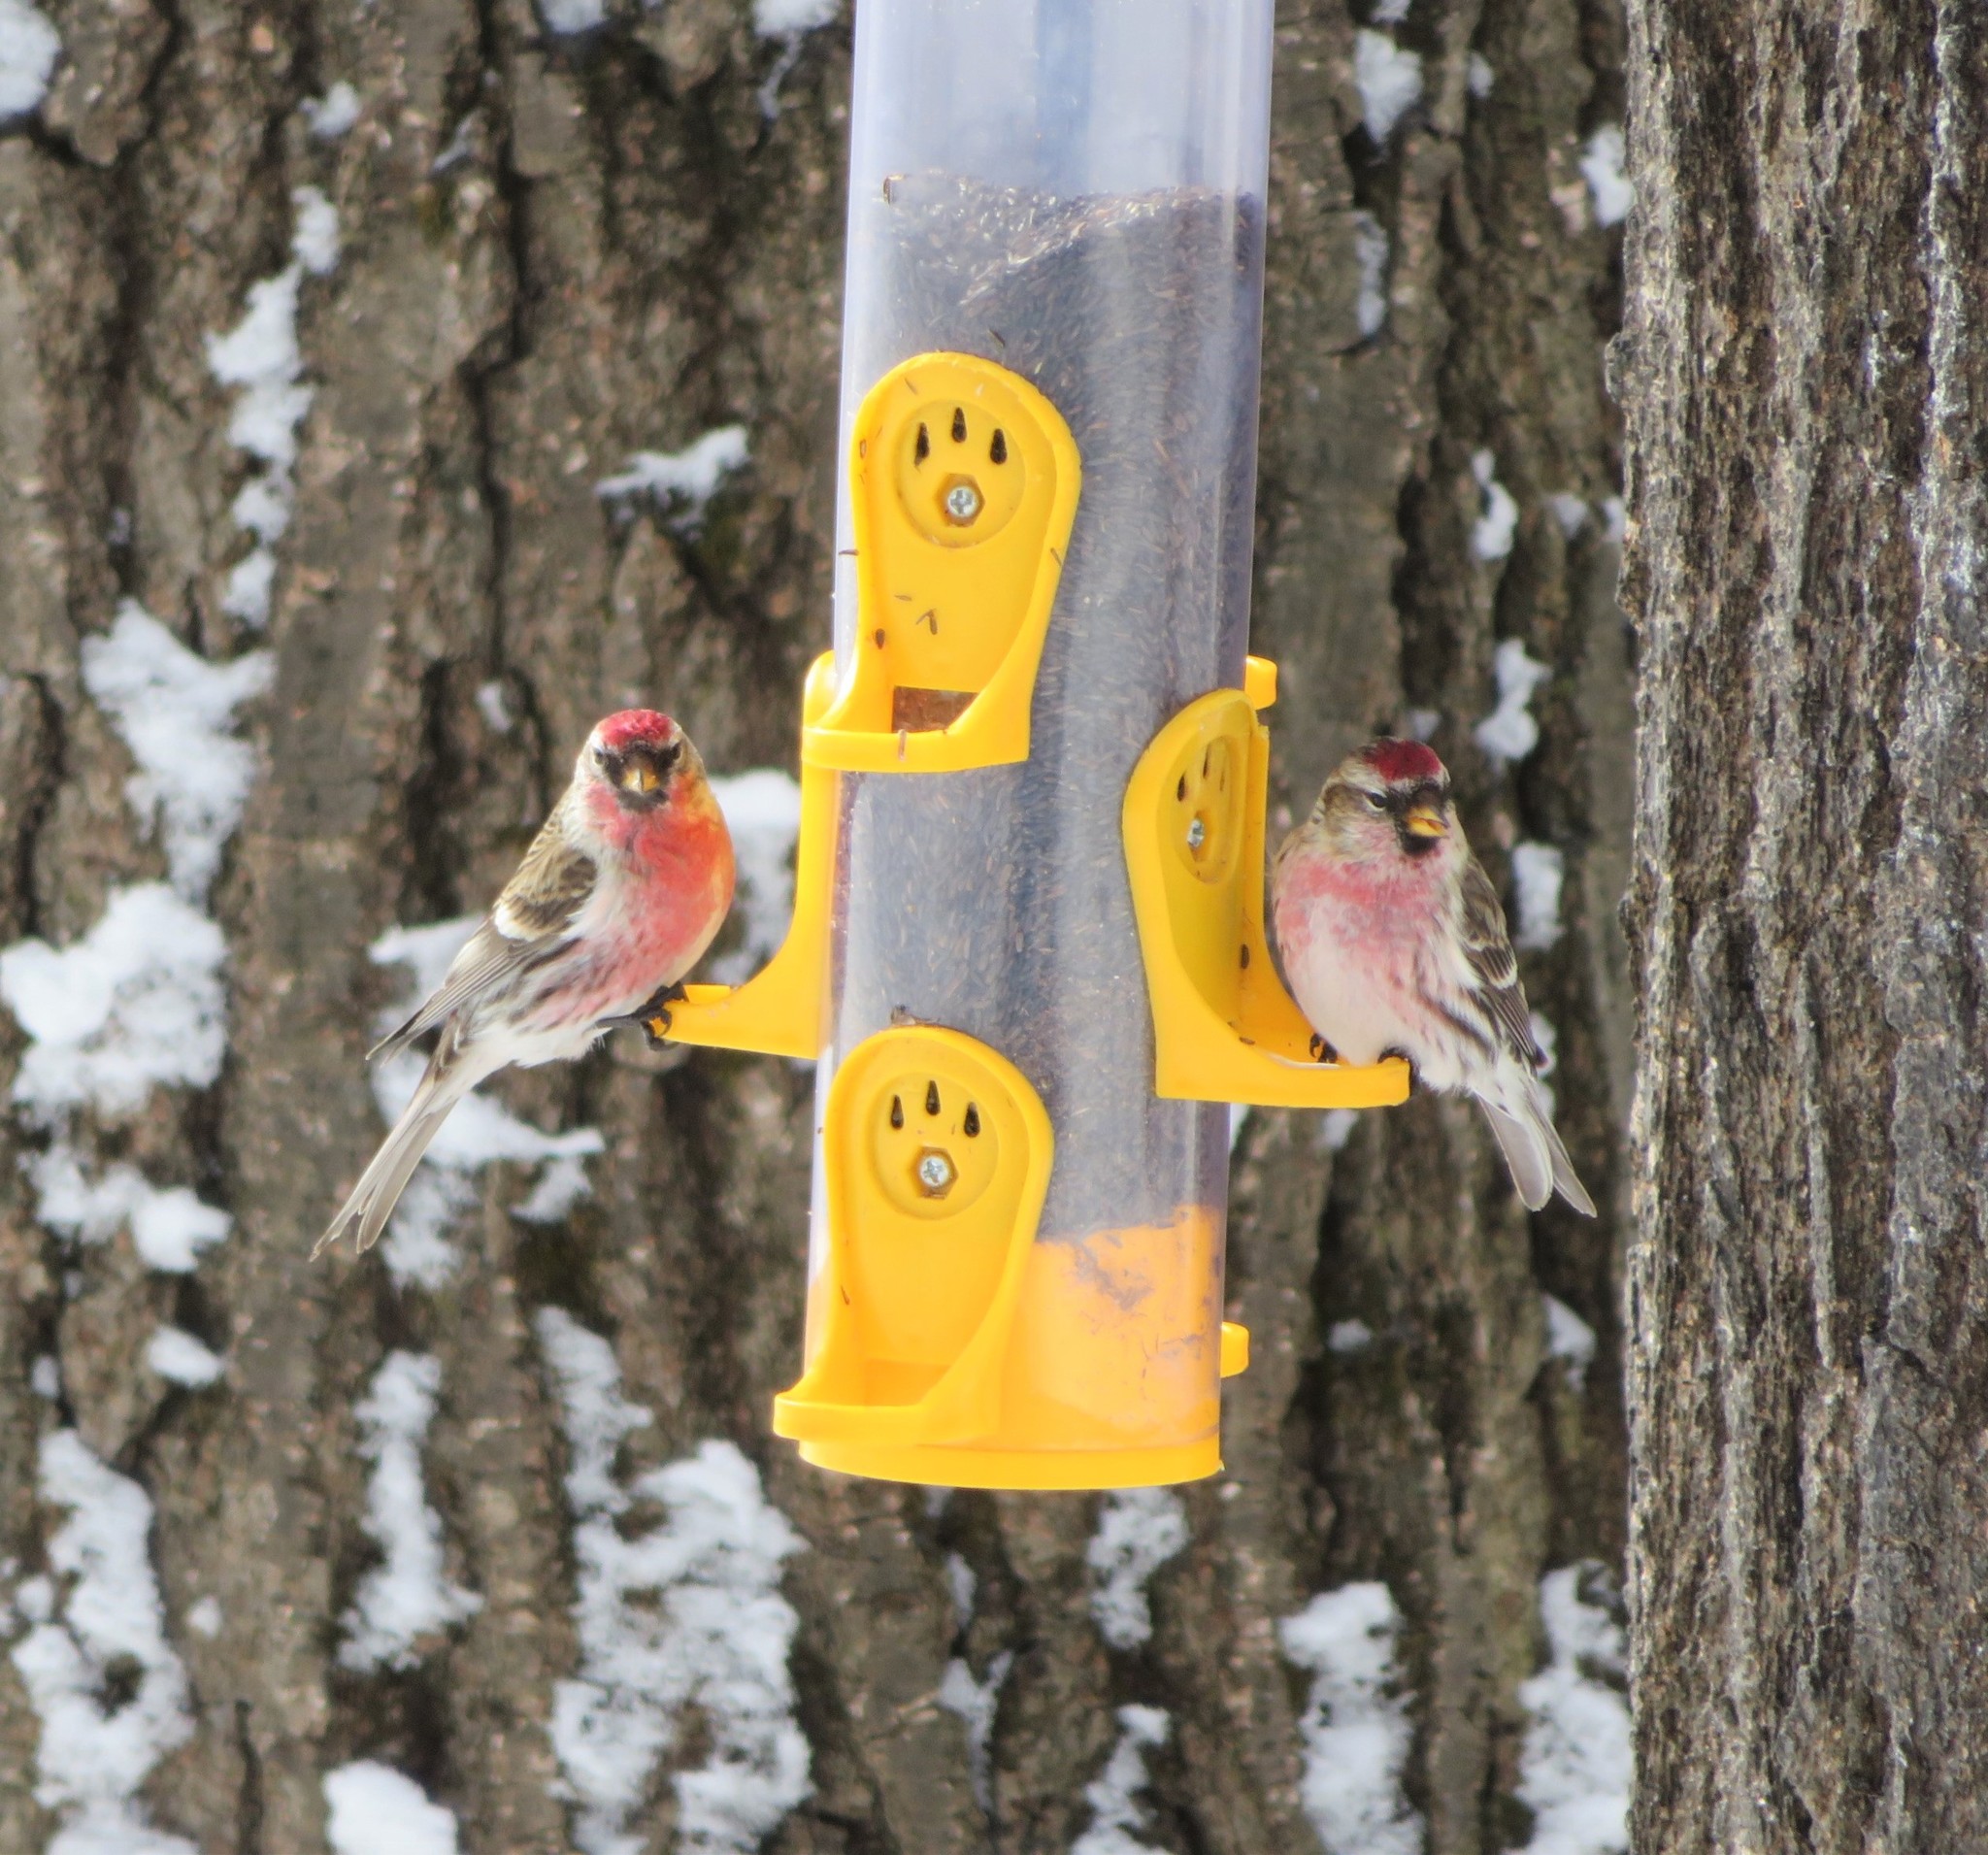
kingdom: Animalia
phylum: Chordata
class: Aves
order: Passeriformes
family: Fringillidae
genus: Acanthis
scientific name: Acanthis flammea
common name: Common redpoll
